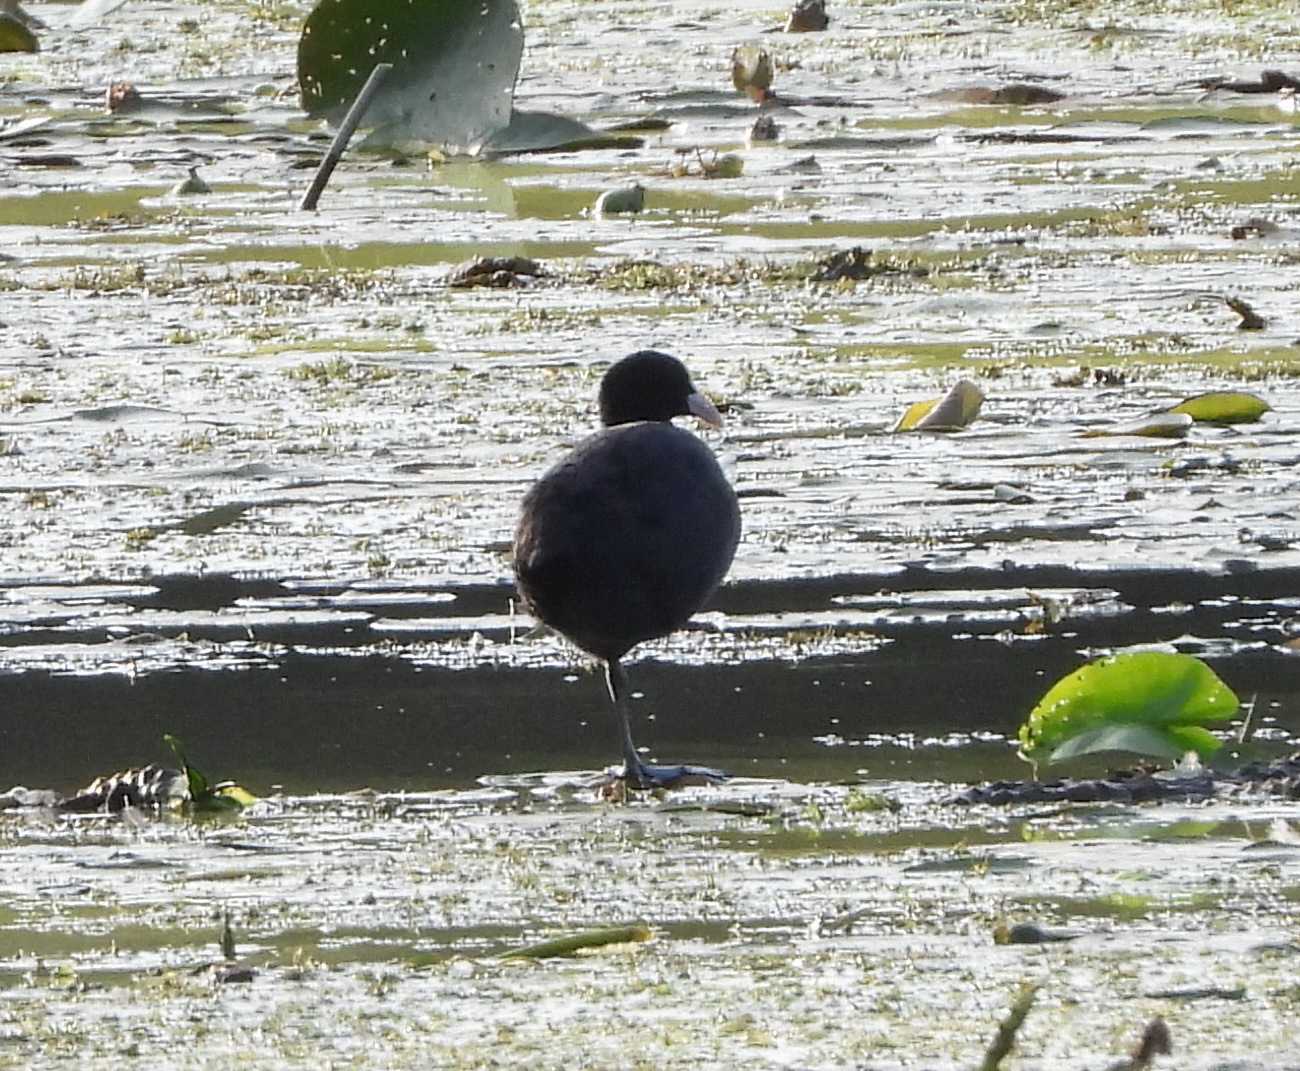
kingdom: Animalia
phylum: Chordata
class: Aves
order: Gruiformes
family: Rallidae
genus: Fulica
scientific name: Fulica atra
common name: Eurasian coot
